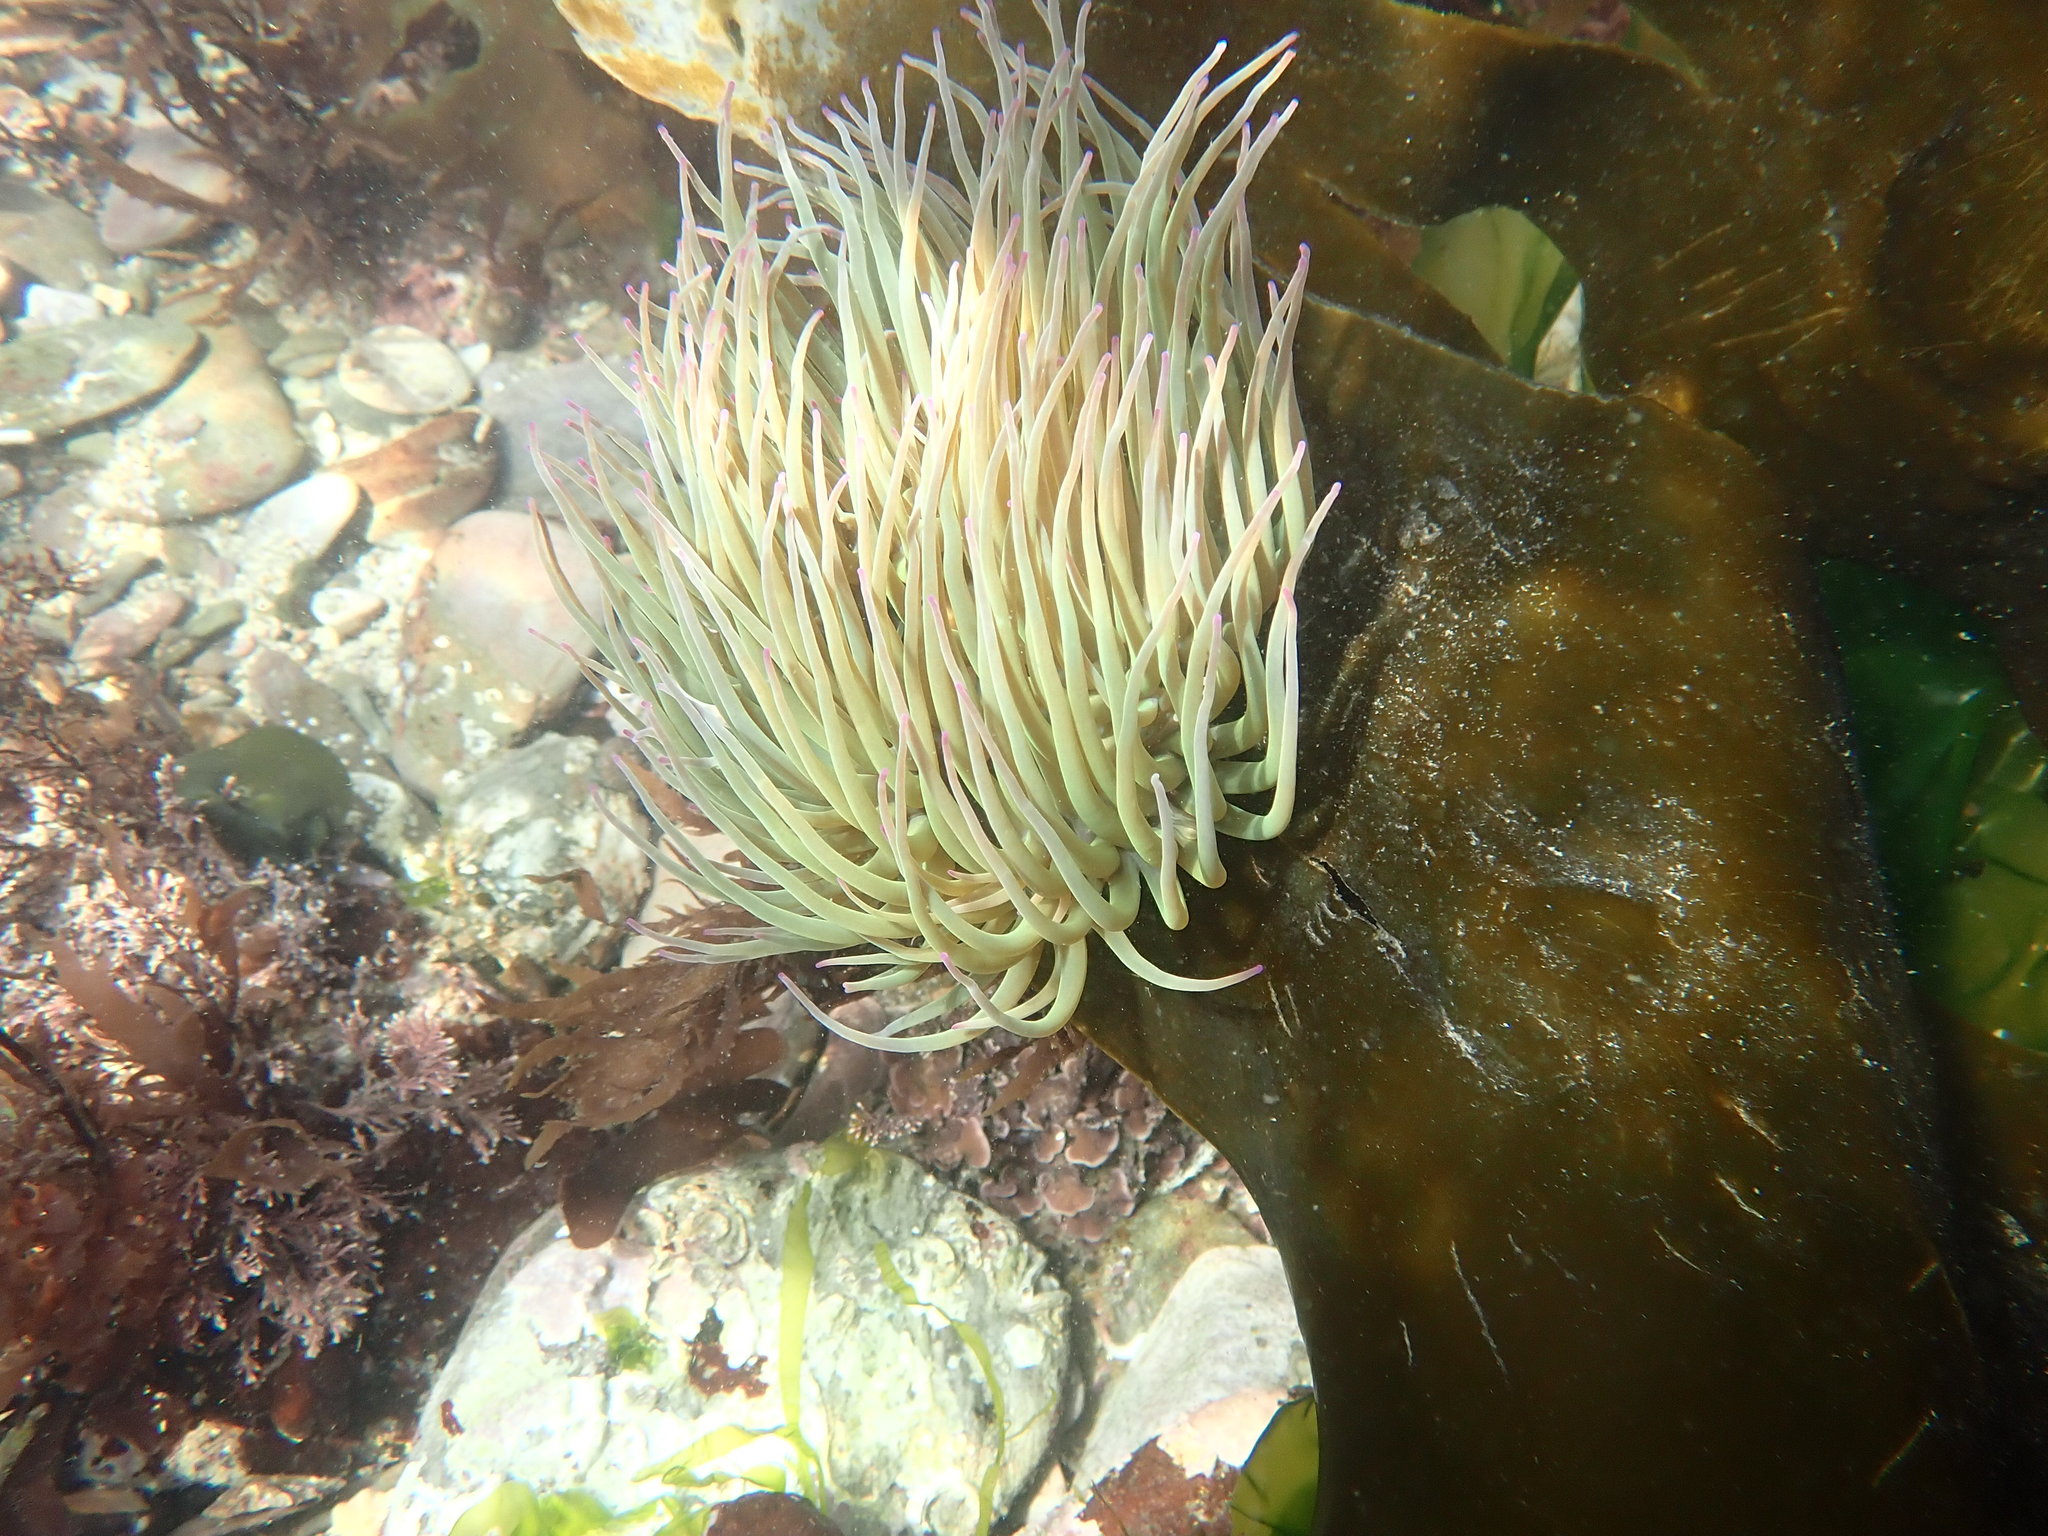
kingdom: Animalia
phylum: Cnidaria
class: Anthozoa
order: Actiniaria
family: Actiniidae
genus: Anemonia
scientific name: Anemonia viridis
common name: Snakelocks anemone
